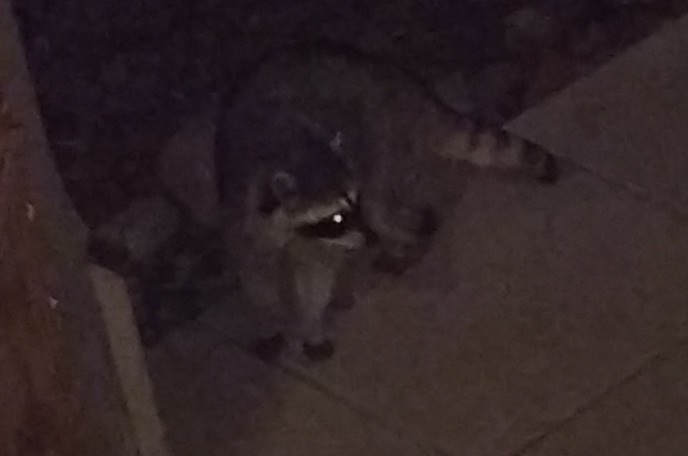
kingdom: Animalia
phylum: Chordata
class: Mammalia
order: Carnivora
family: Procyonidae
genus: Procyon
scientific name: Procyon lotor
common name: Raccoon
